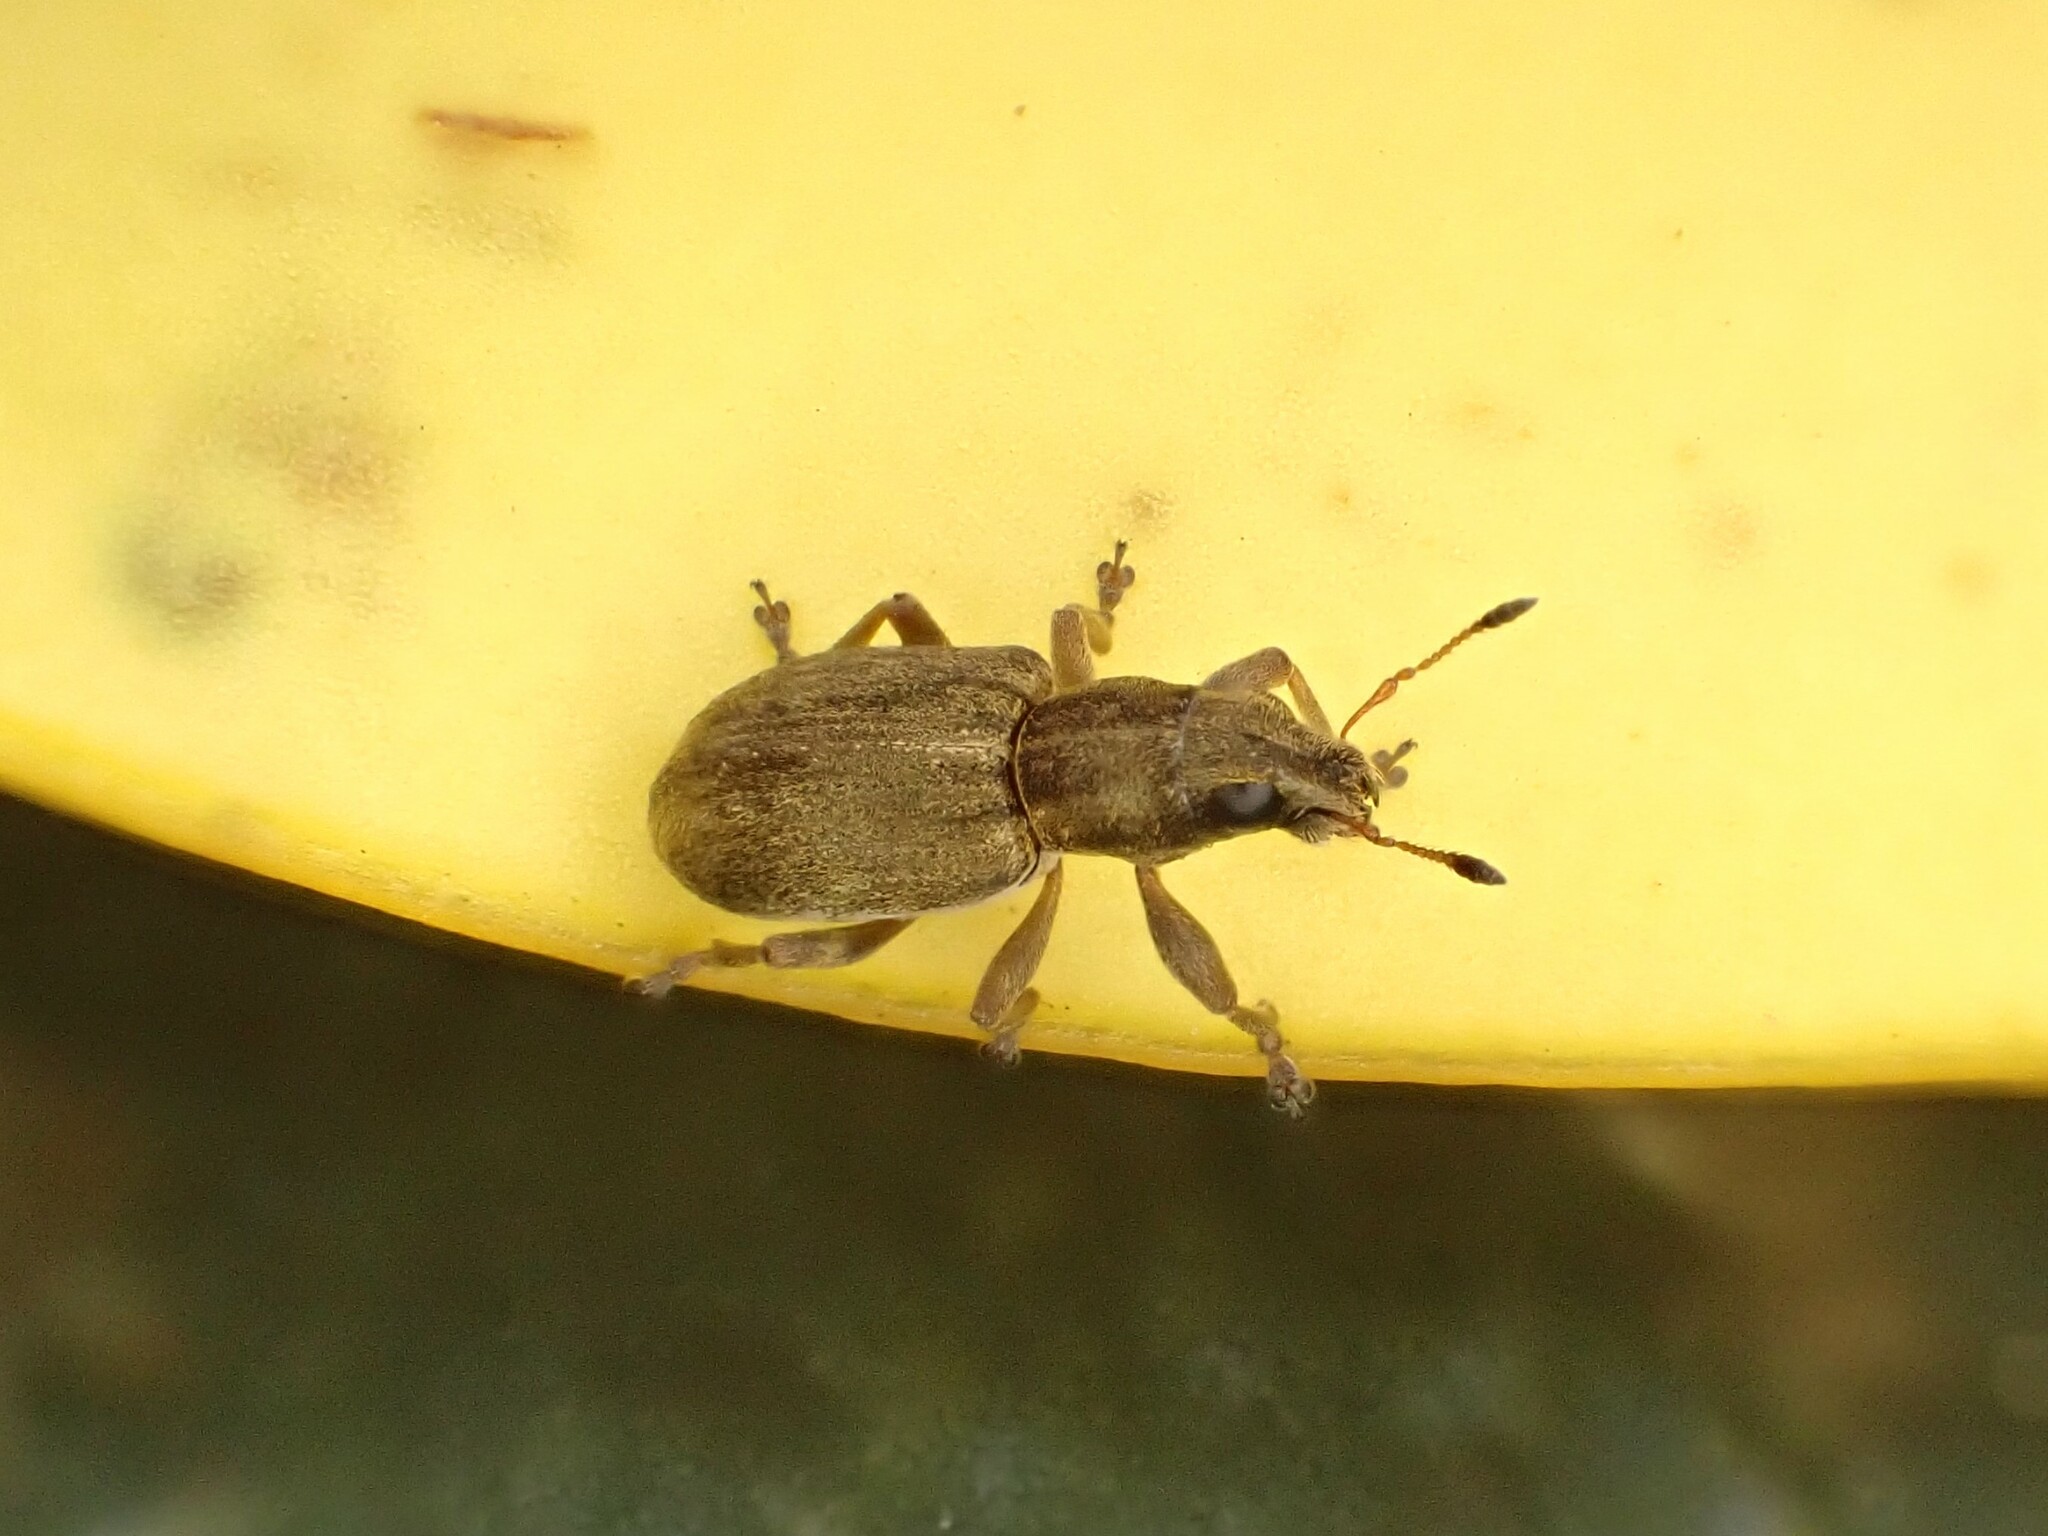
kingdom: Animalia
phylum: Arthropoda
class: Insecta
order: Coleoptera
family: Curculionidae
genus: Sitona
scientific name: Sitona obsoletus
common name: Weevil
